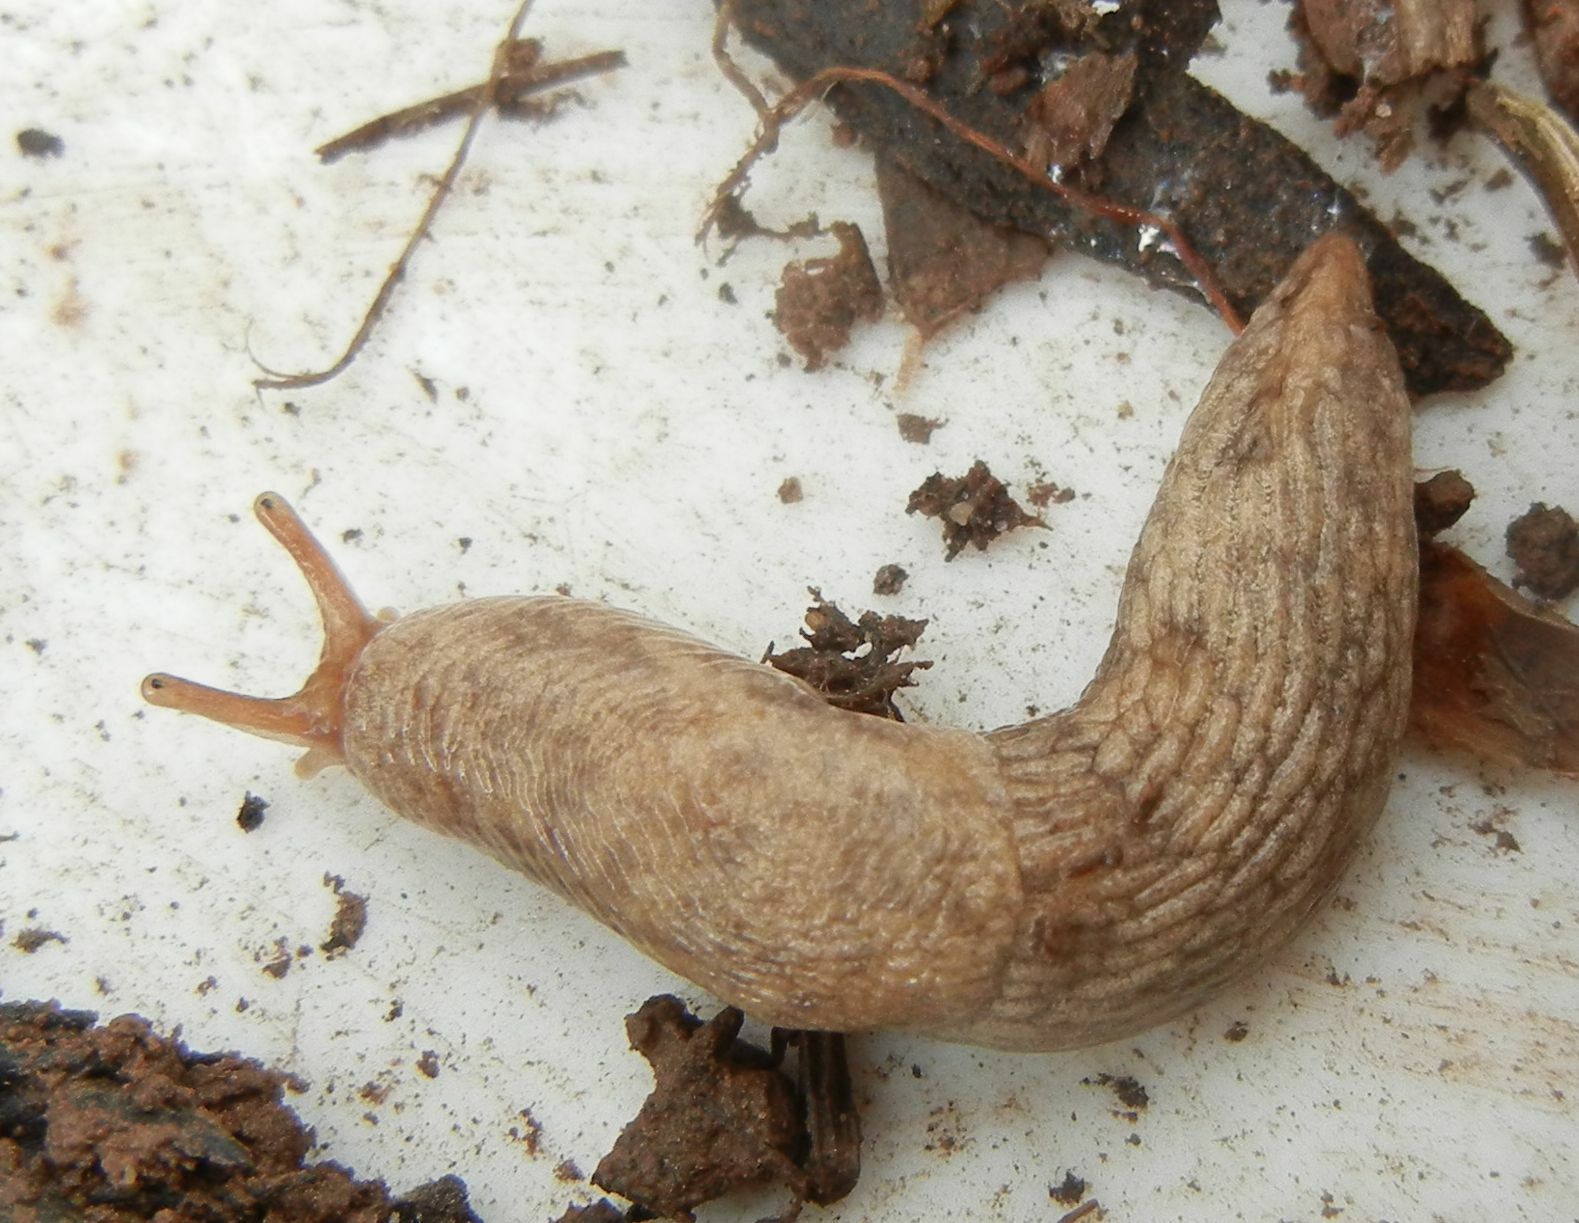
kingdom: Animalia
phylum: Mollusca
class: Gastropoda
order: Stylommatophora
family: Agriolimacidae
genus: Deroceras
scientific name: Deroceras reticulatum
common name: Gray field slug
